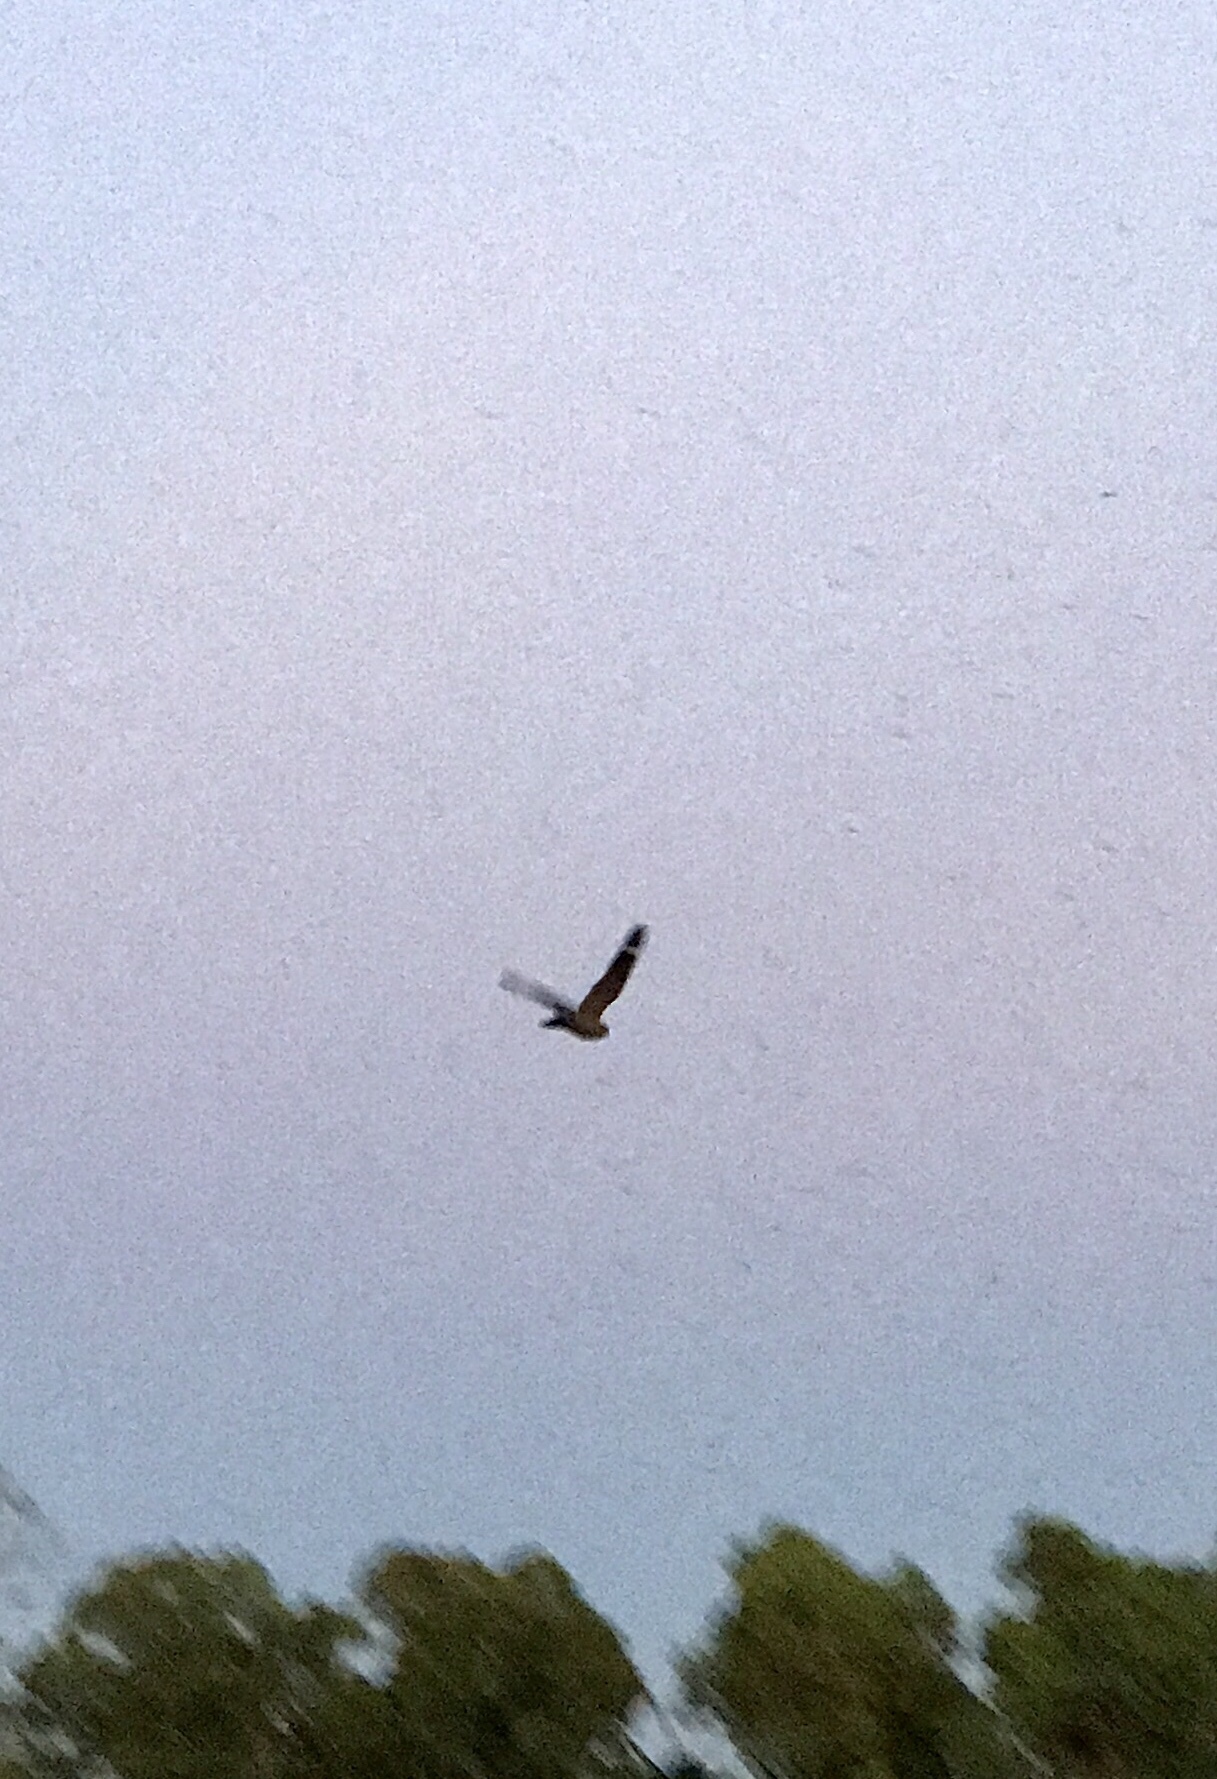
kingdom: Animalia
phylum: Chordata
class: Aves
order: Caprimulgiformes
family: Caprimulgidae
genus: Chordeiles
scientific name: Chordeiles acutipennis
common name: Lesser nighthawk
